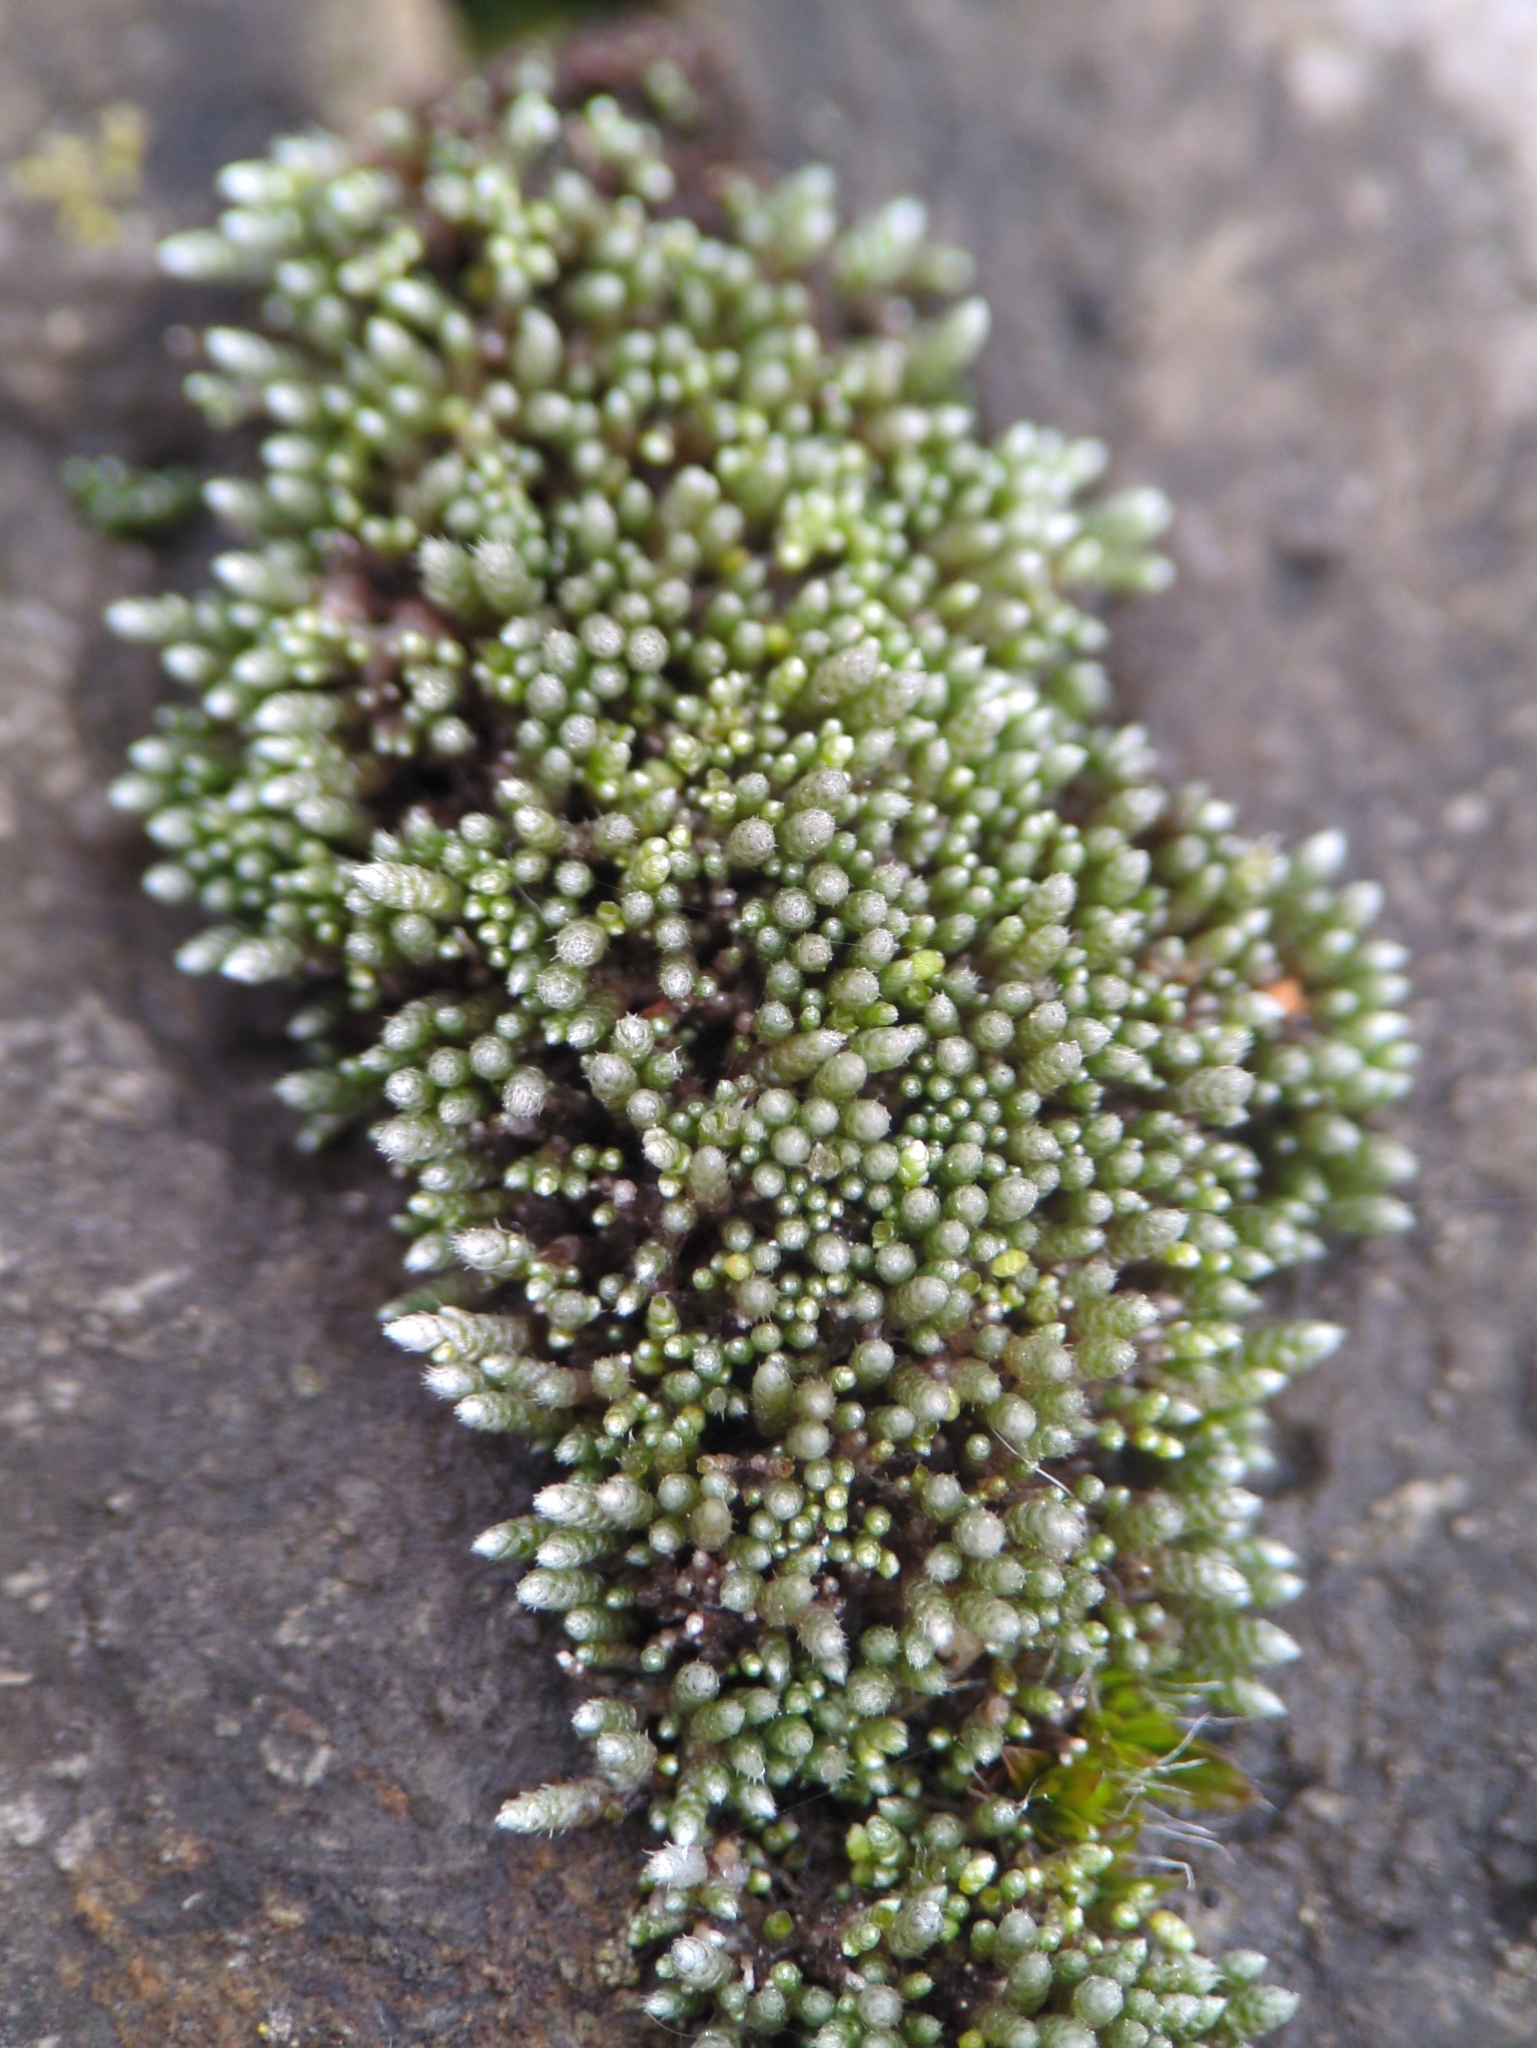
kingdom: Plantae
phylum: Bryophyta
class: Bryopsida
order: Bryales
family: Bryaceae
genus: Bryum
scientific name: Bryum argenteum
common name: Silver-moss
